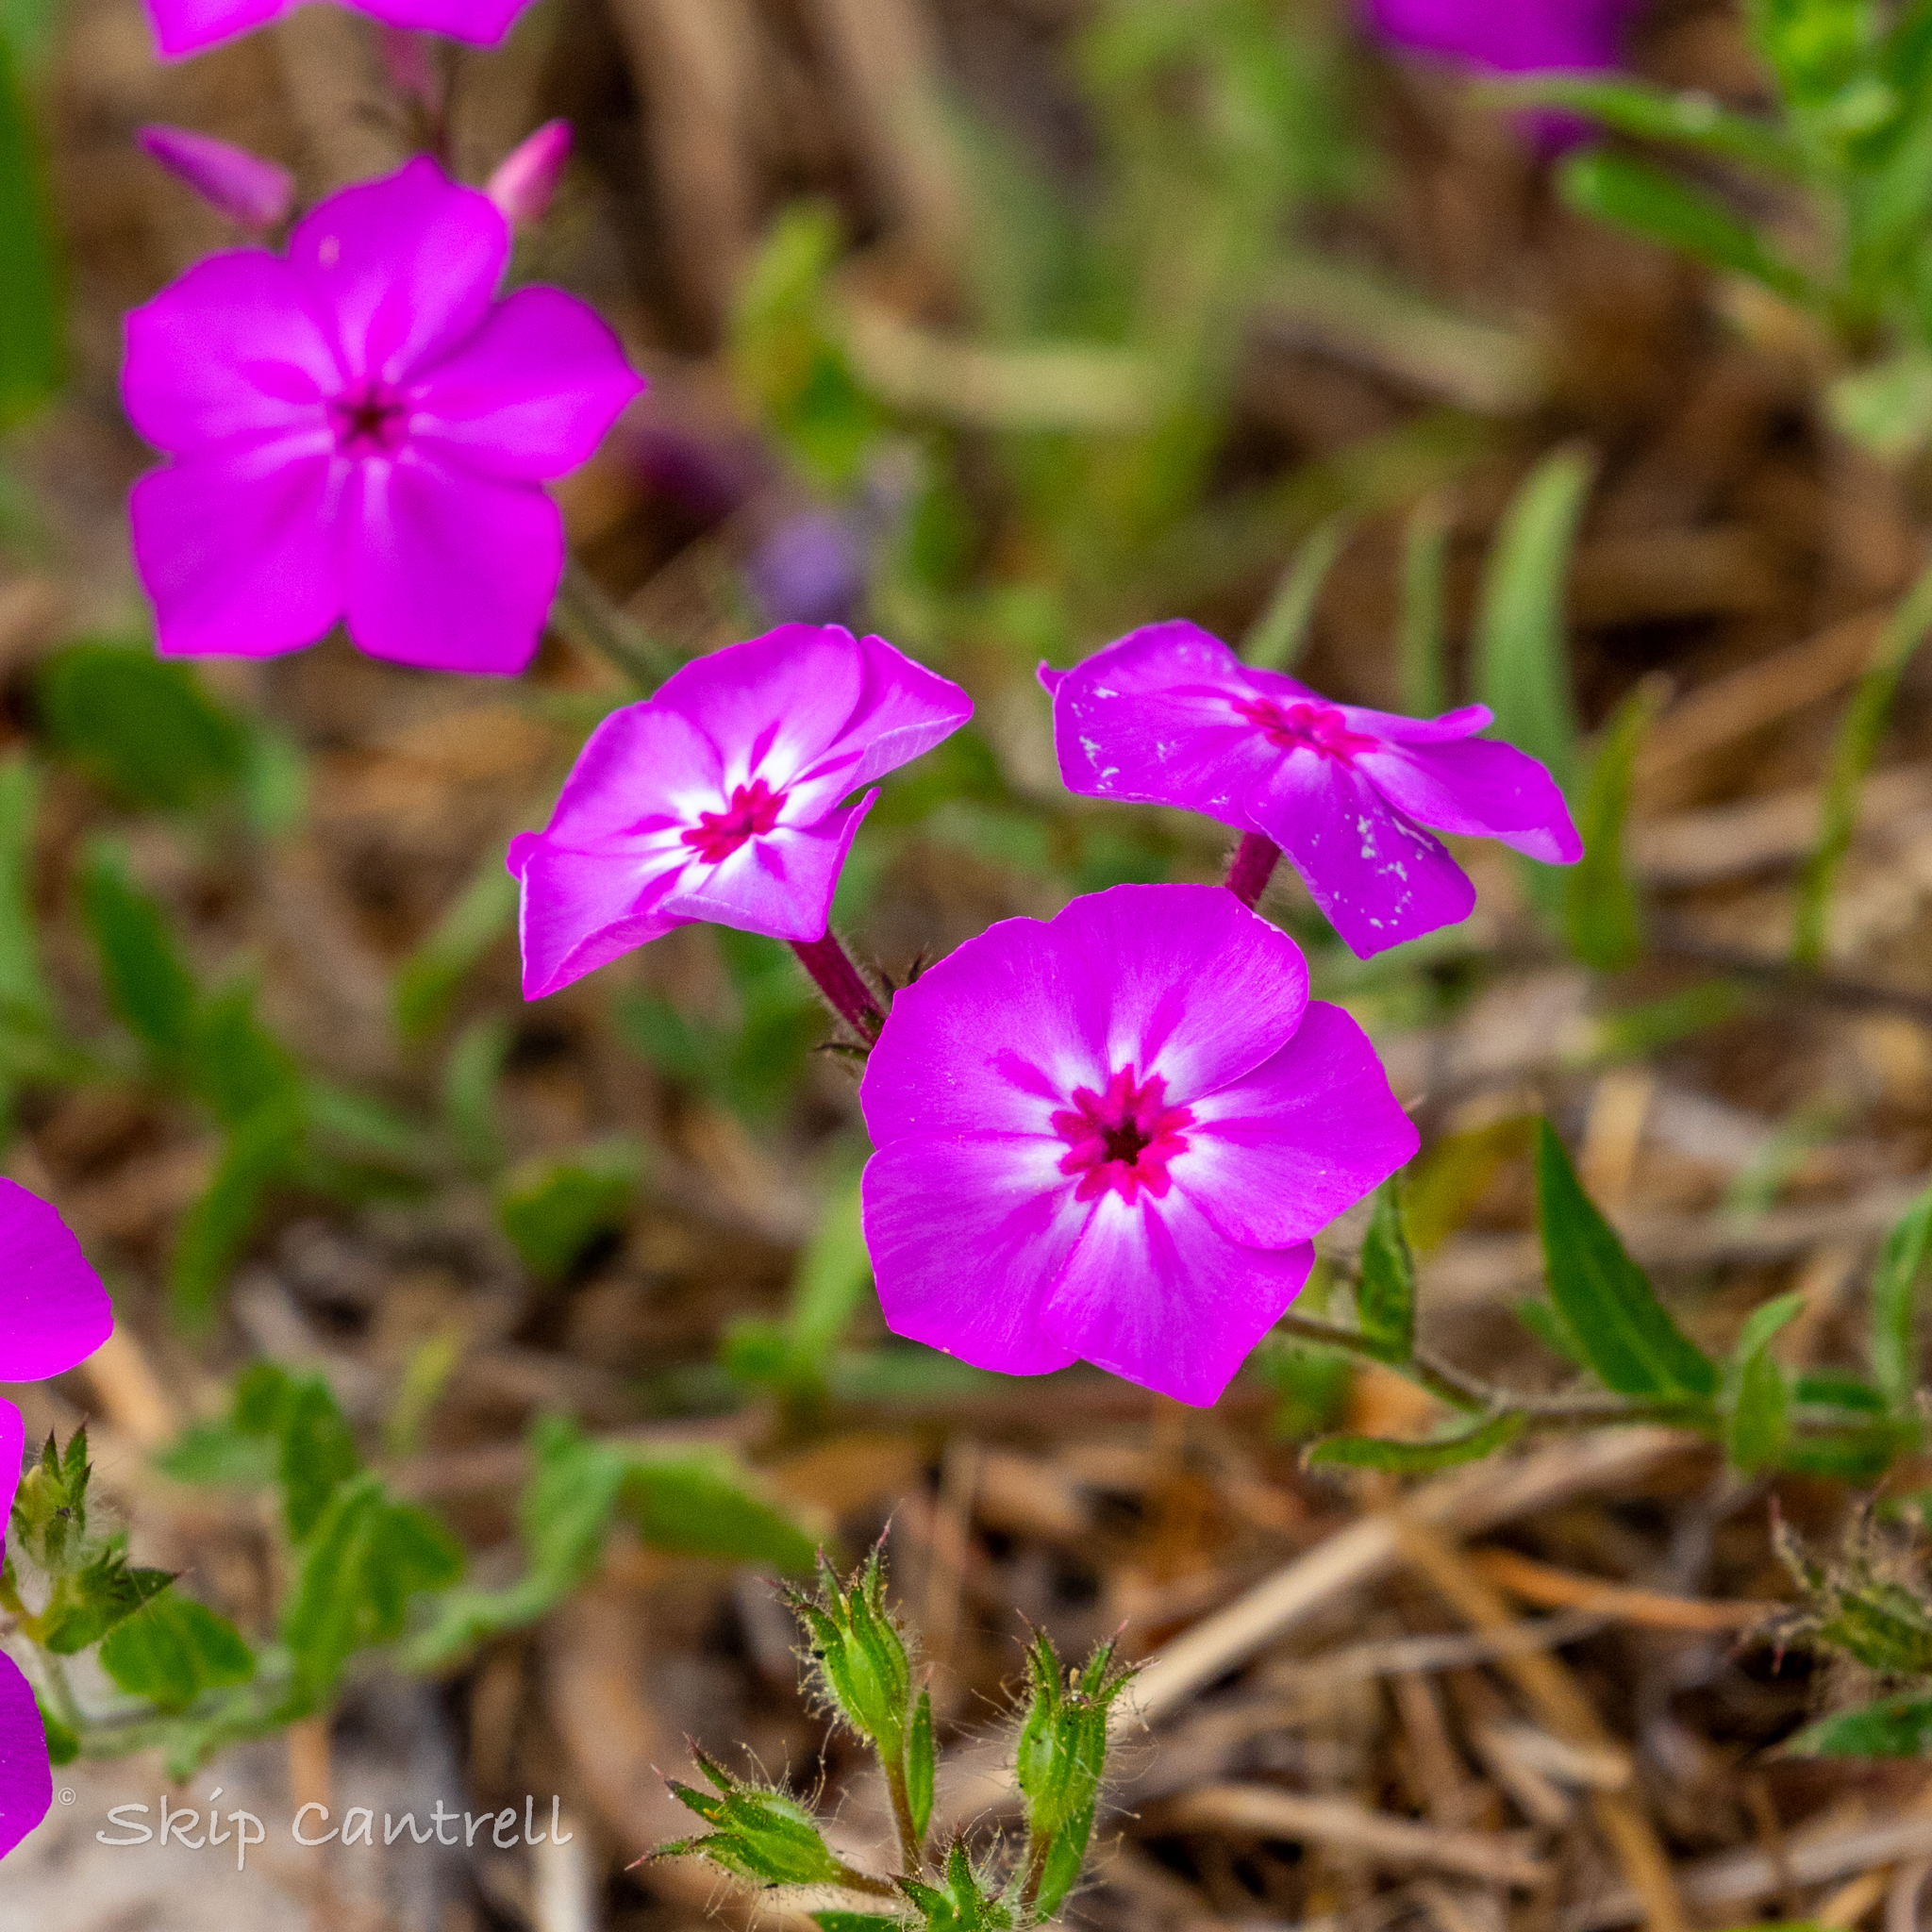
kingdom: Plantae
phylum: Tracheophyta
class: Magnoliopsida
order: Ericales
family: Polemoniaceae
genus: Phlox
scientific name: Phlox drummondii
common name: Drummond's phlox
